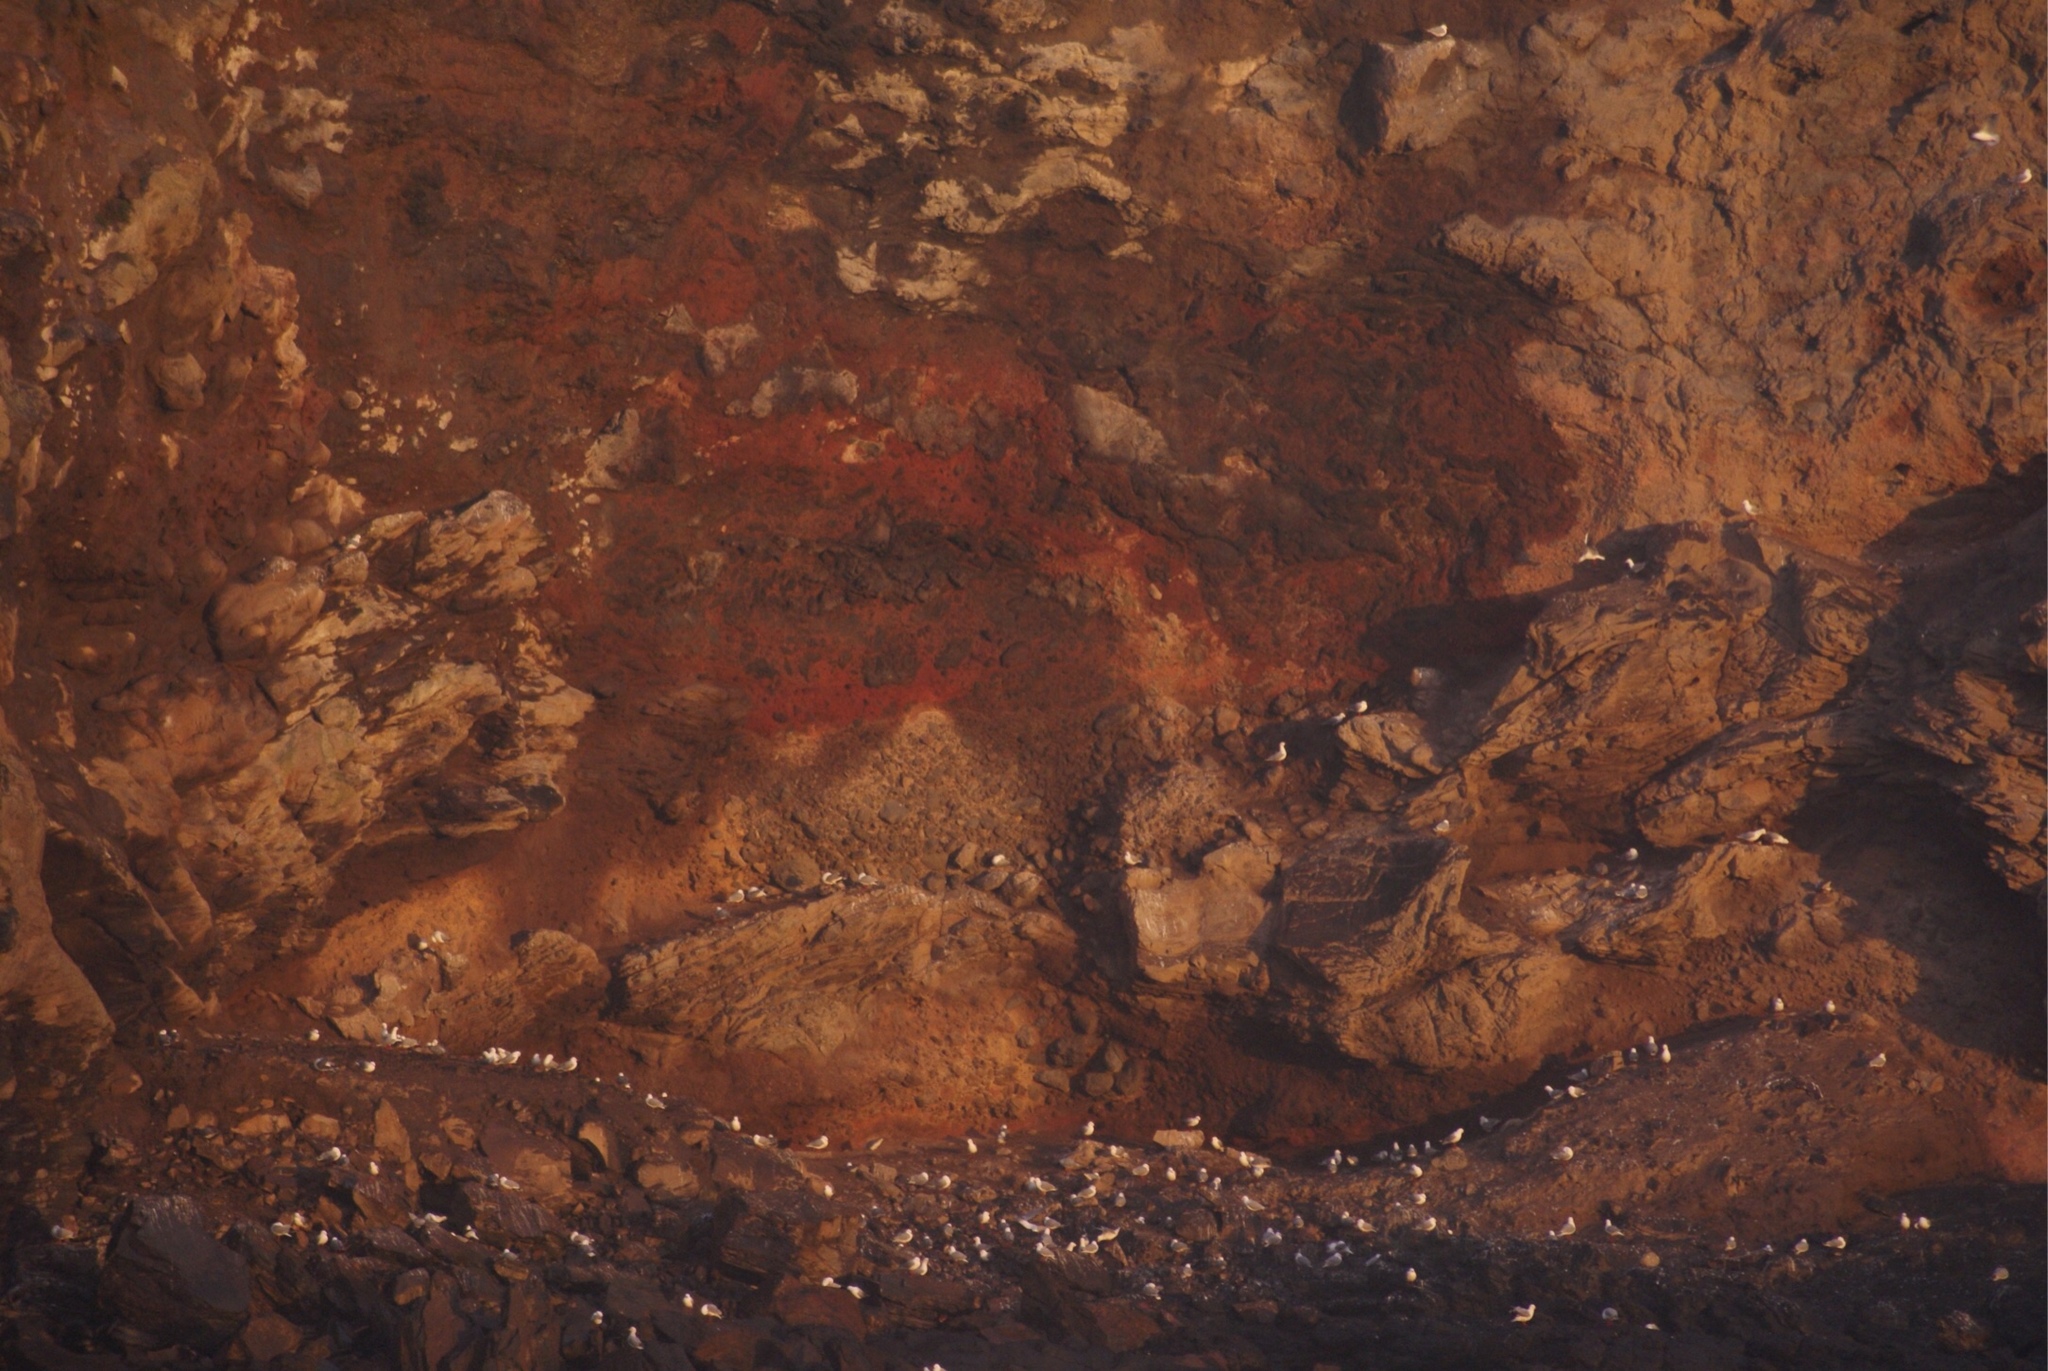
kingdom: Animalia
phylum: Chordata
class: Aves
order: Charadriiformes
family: Laridae
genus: Chroicocephalus
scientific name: Chroicocephalus novaehollandiae
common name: Silver gull
